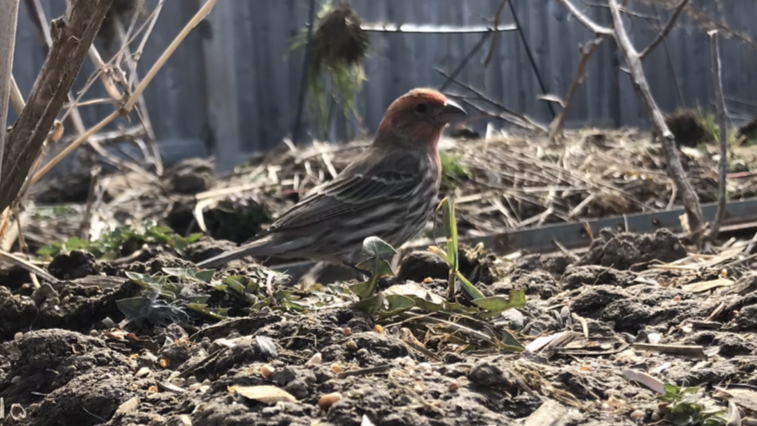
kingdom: Animalia
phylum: Chordata
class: Aves
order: Passeriformes
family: Fringillidae
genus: Haemorhous
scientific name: Haemorhous mexicanus
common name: House finch
